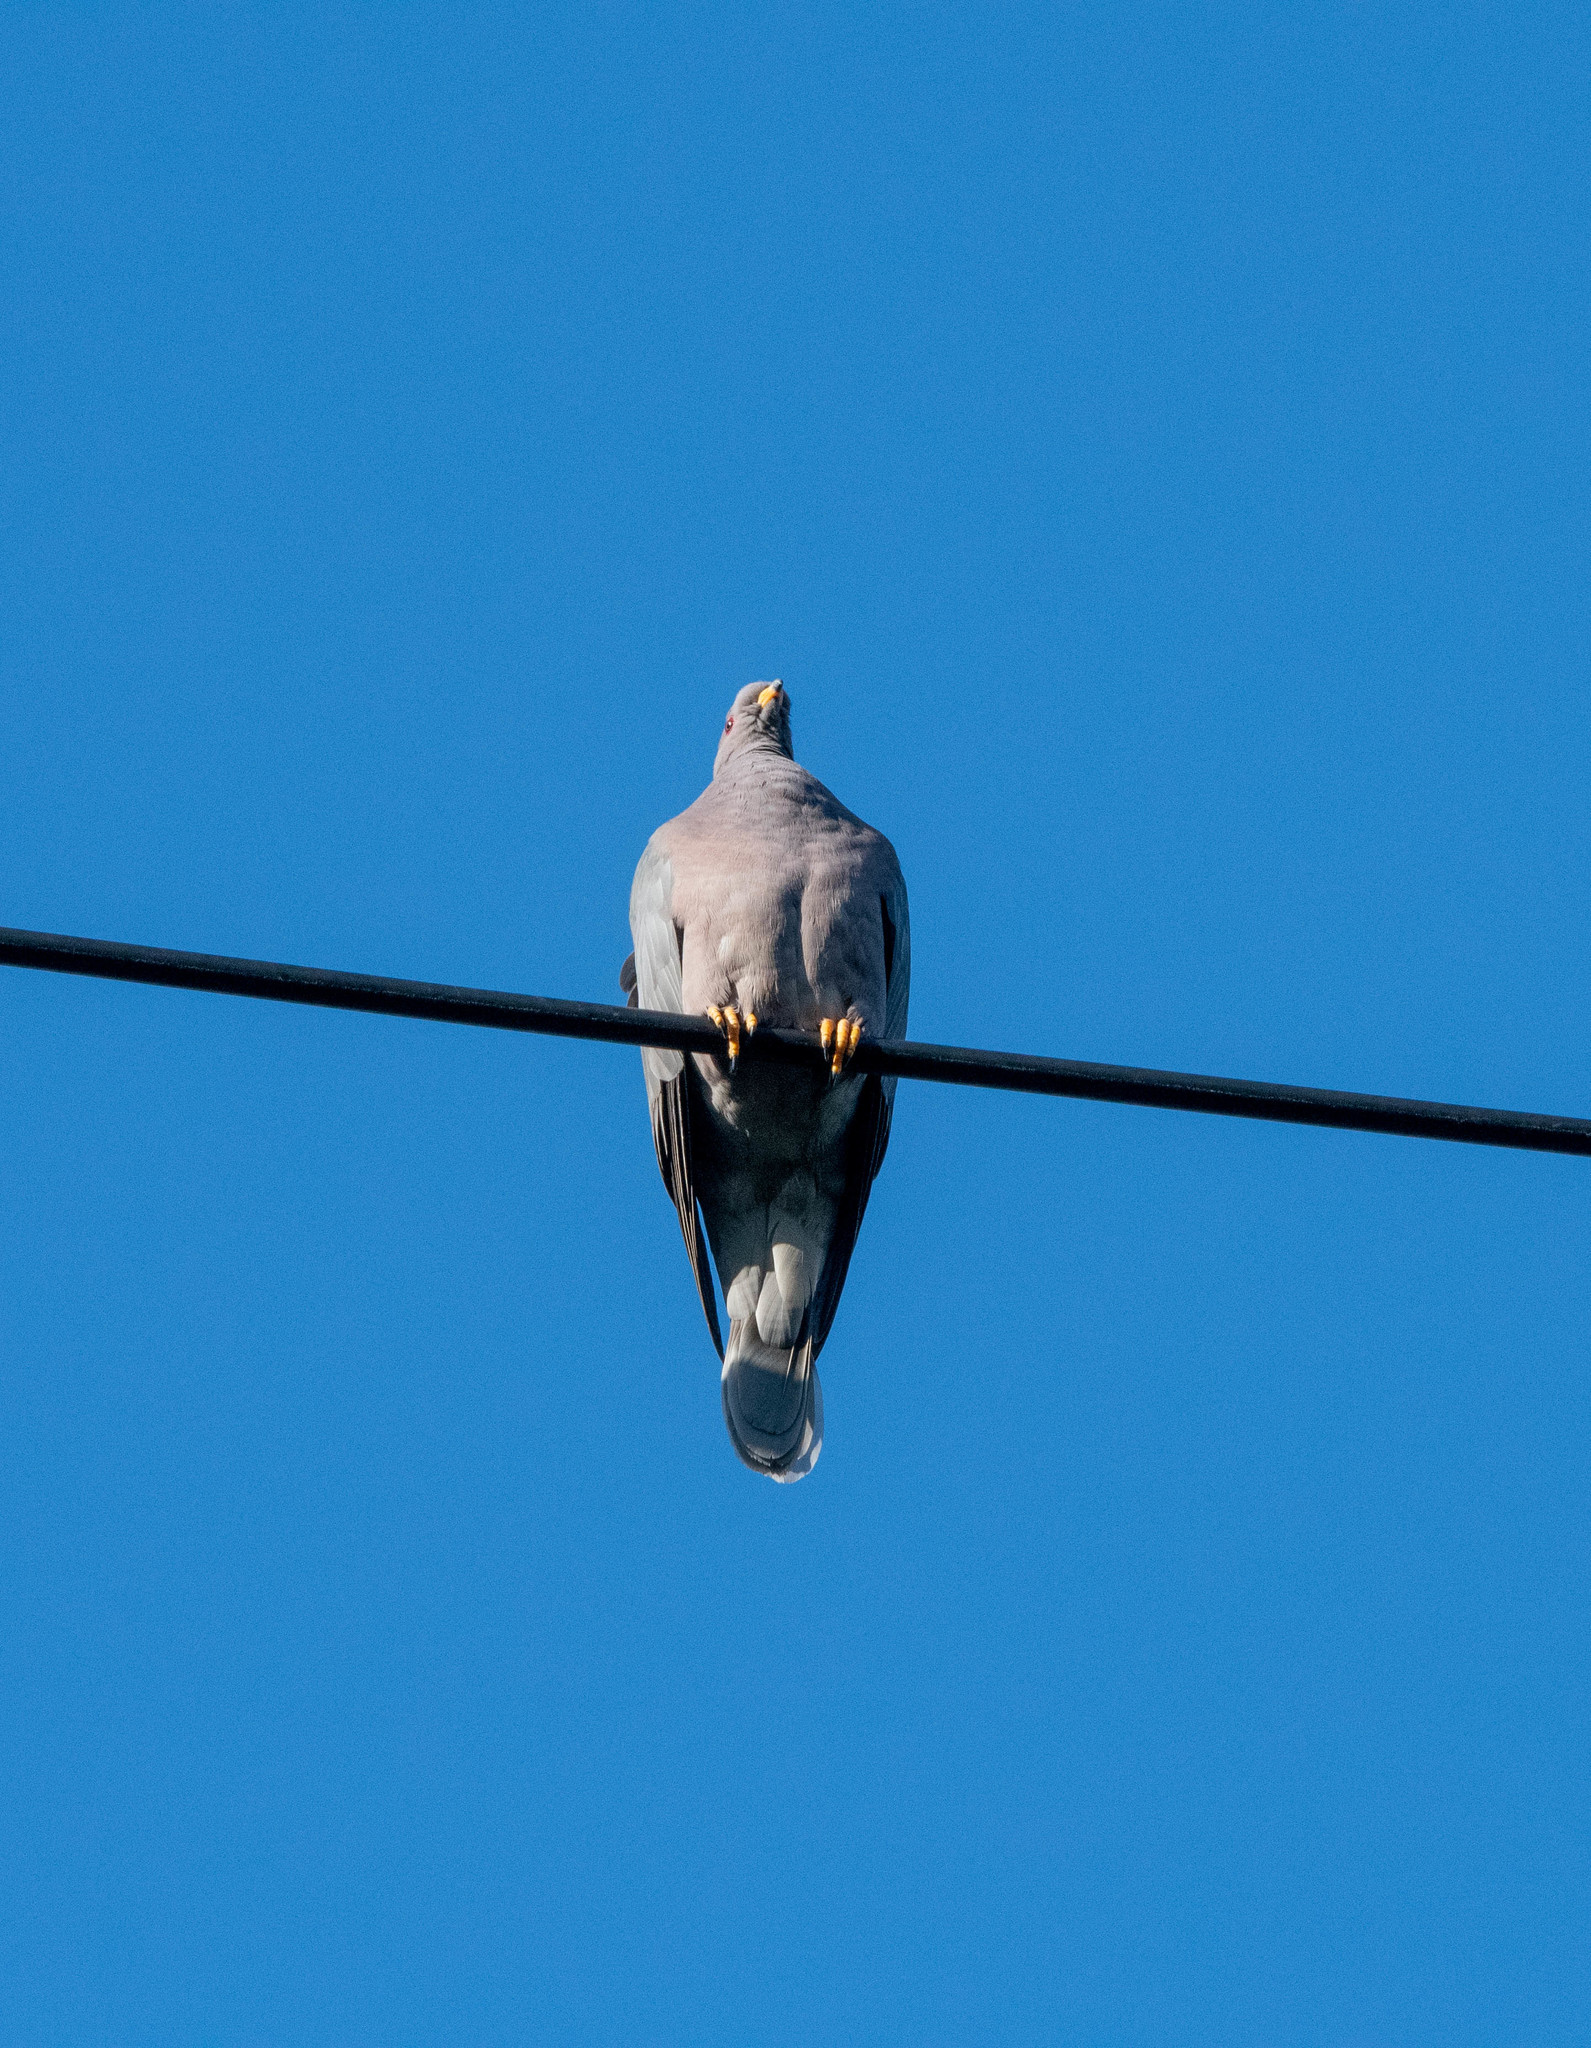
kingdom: Animalia
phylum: Chordata
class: Aves
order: Columbiformes
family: Columbidae
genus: Patagioenas
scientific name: Patagioenas fasciata
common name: Band-tailed pigeon
